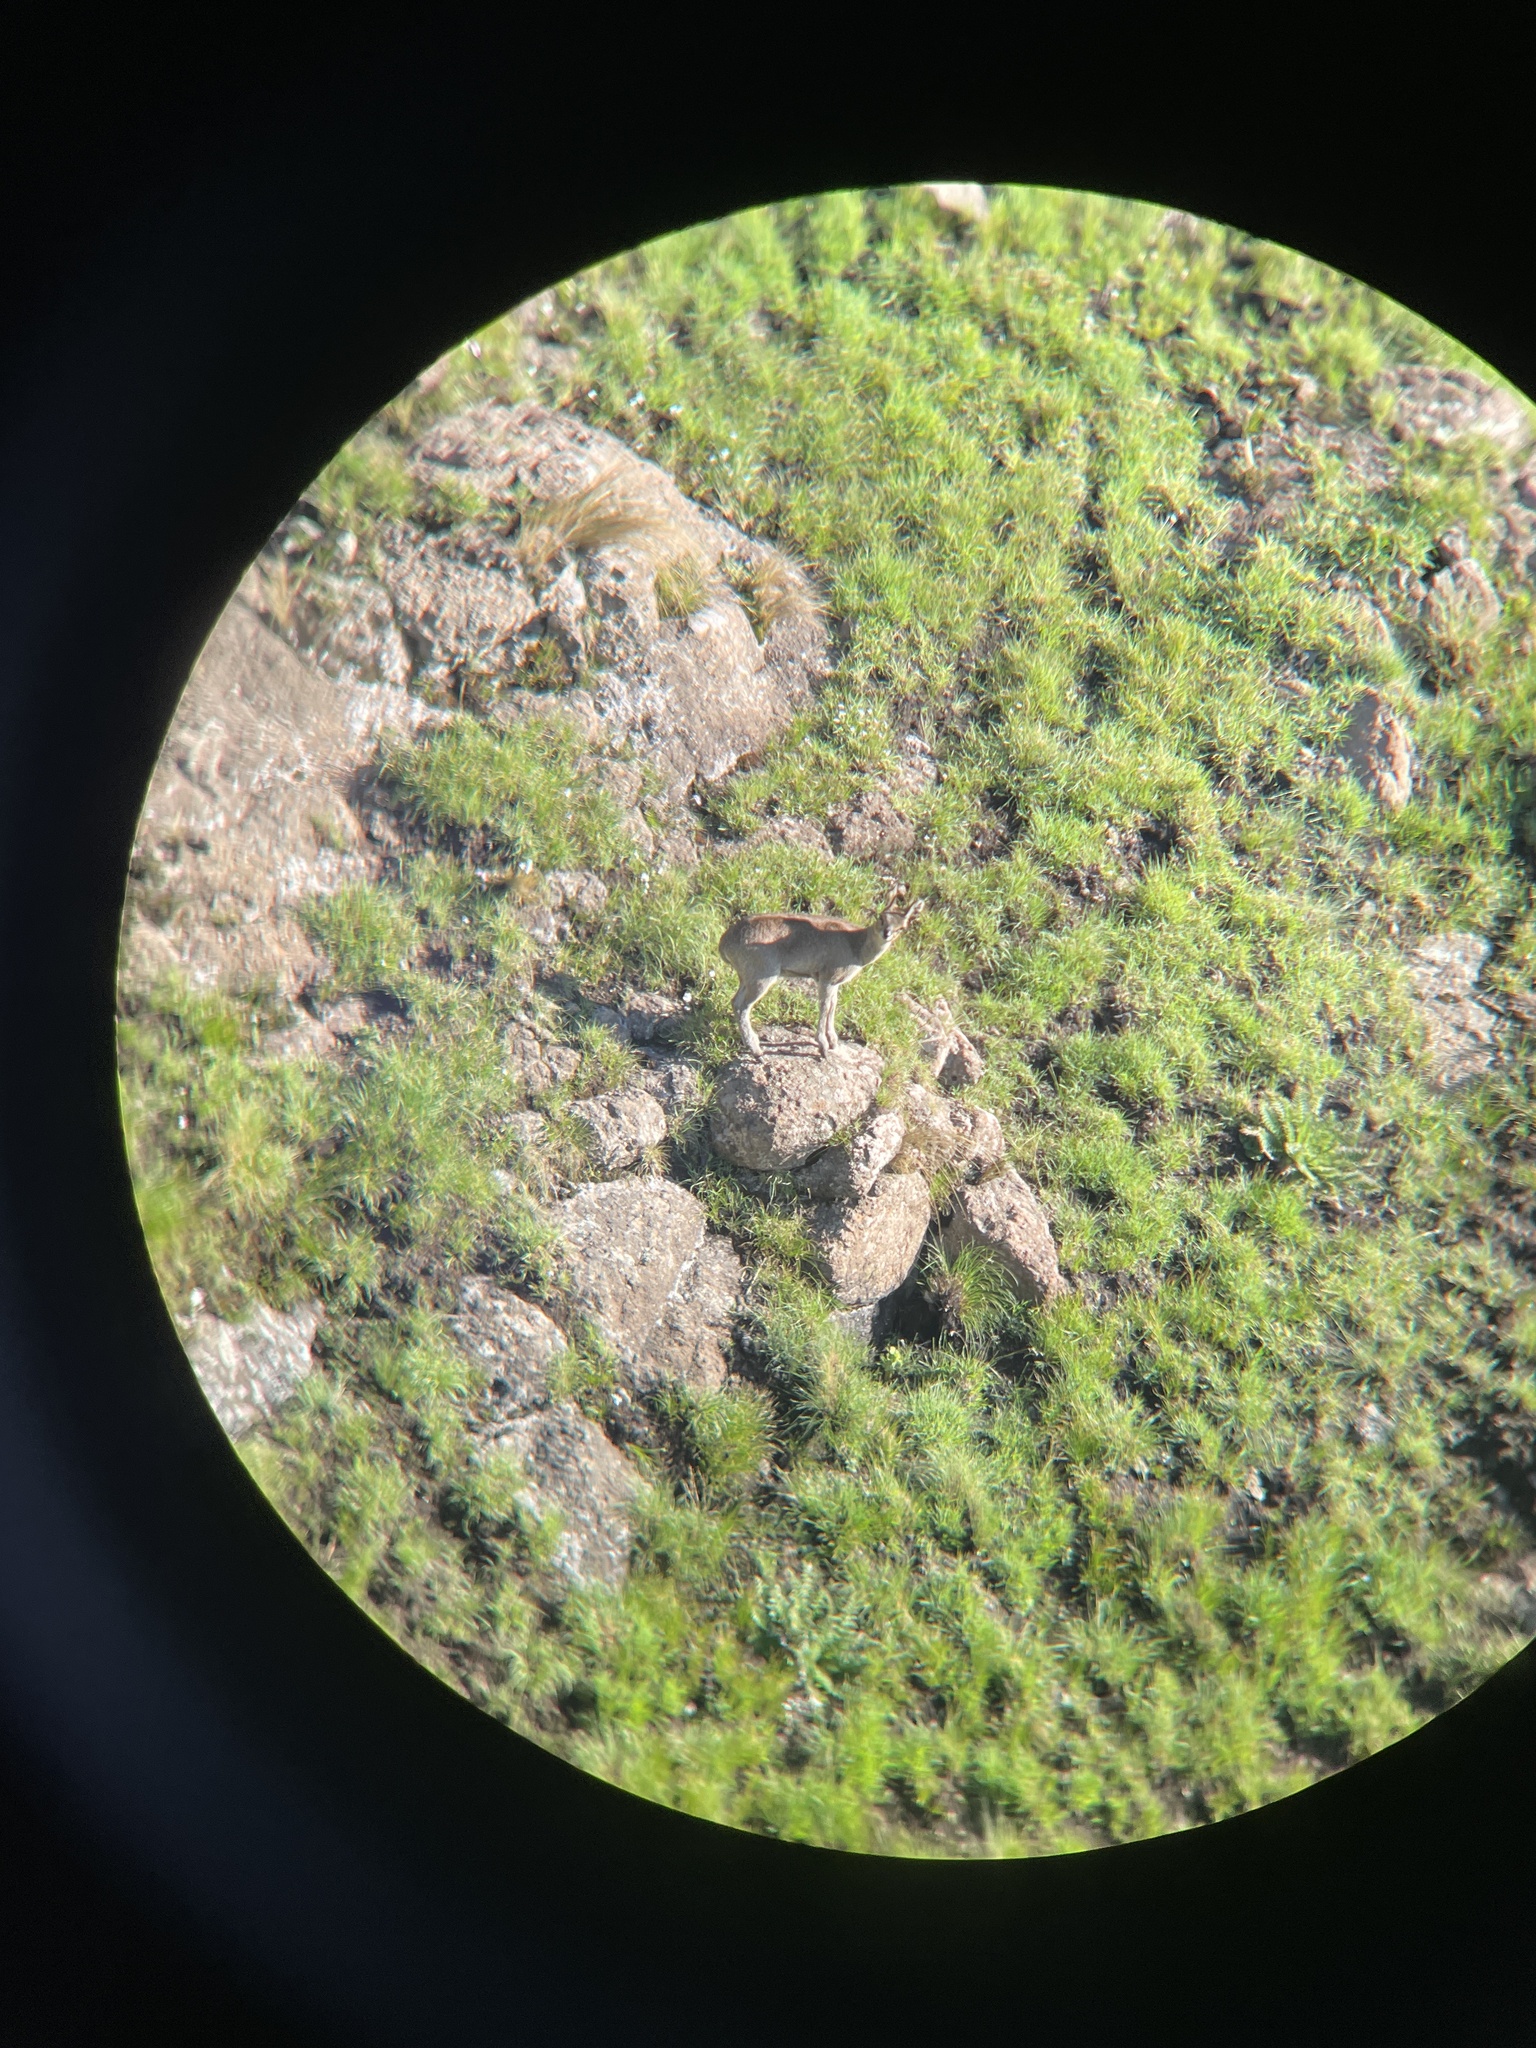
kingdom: Animalia
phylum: Chordata
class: Mammalia
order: Artiodactyla
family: Bovidae
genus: Oreotragus
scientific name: Oreotragus oreotragus
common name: Klipspringer
